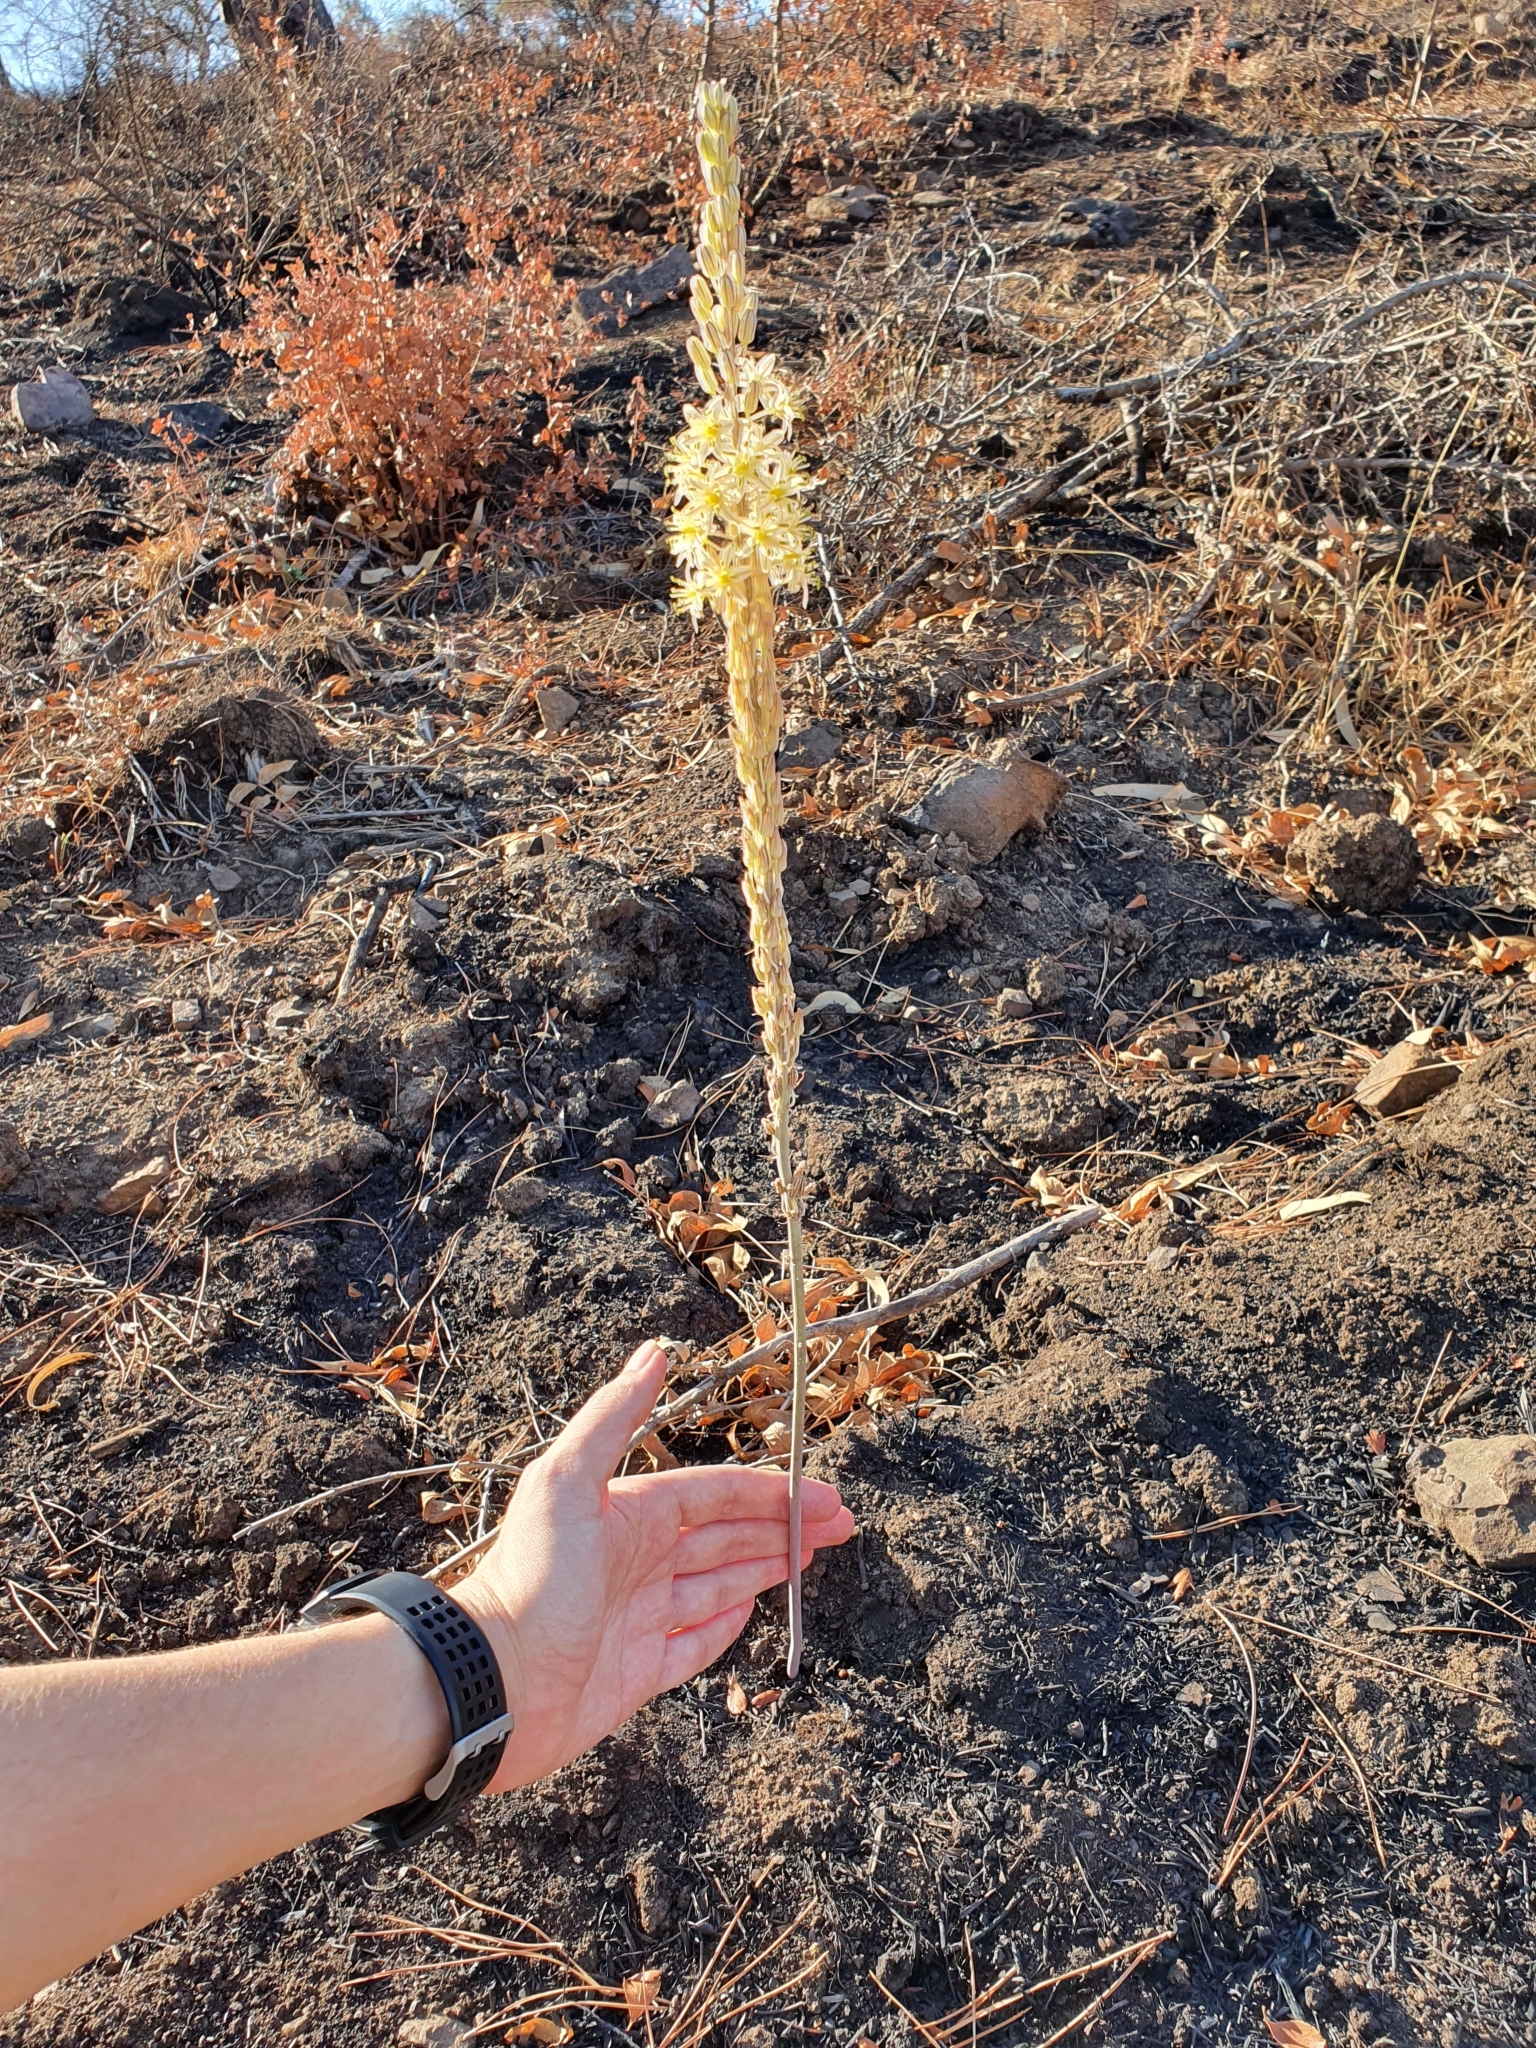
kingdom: Plantae
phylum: Tracheophyta
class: Liliopsida
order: Asparagales
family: Asparagaceae
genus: Drimia
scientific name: Drimia anthericoides
